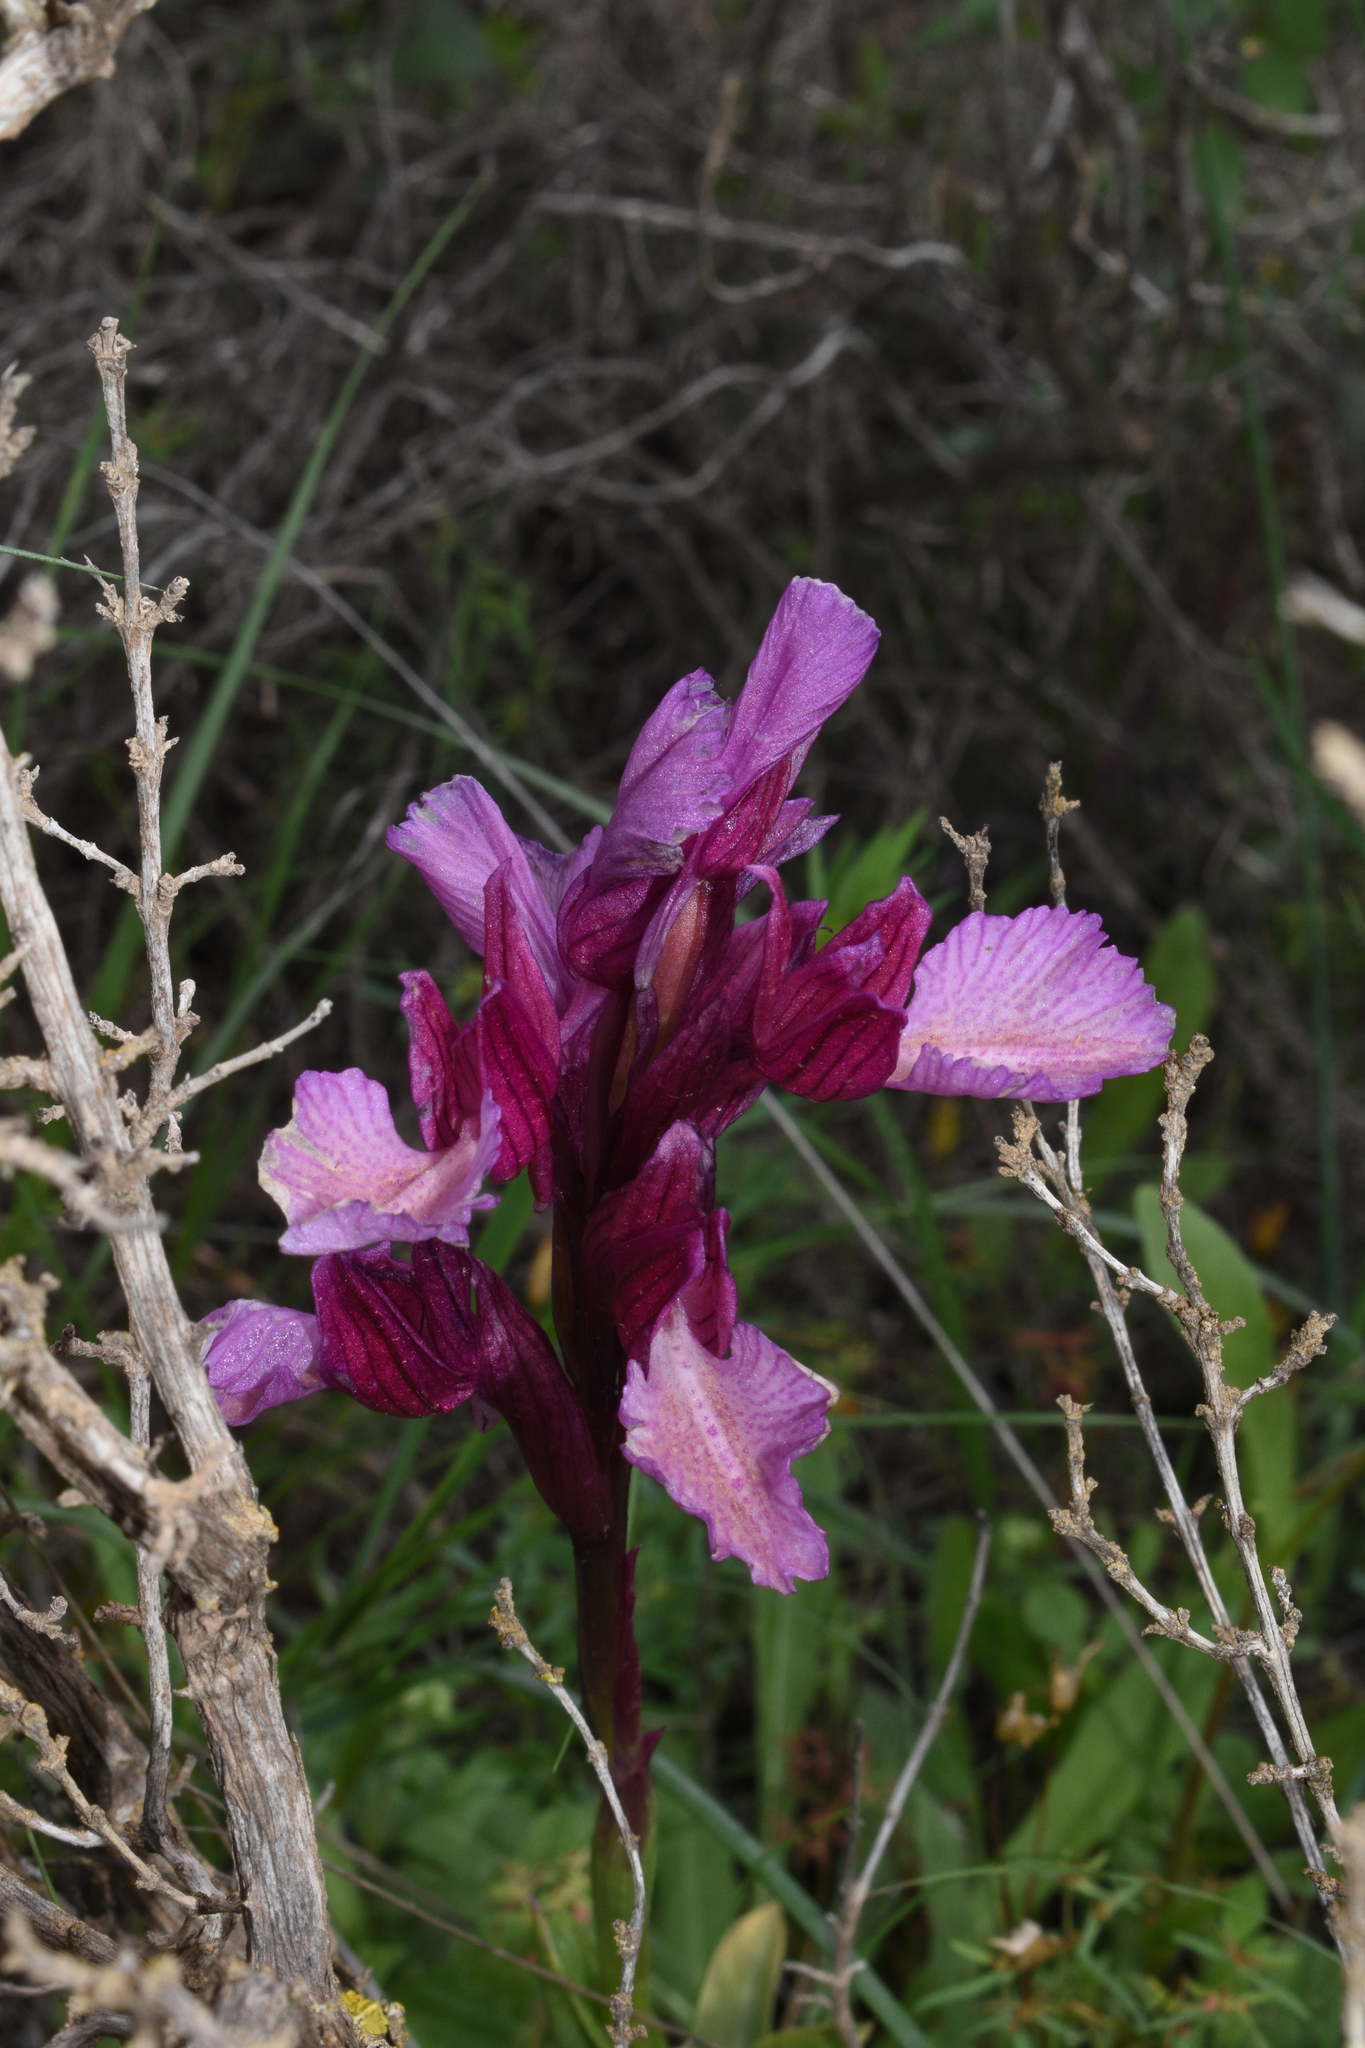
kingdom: Plantae
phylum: Tracheophyta
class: Liliopsida
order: Asparagales
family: Orchidaceae
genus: Anacamptis
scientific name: Anacamptis papilionacea
